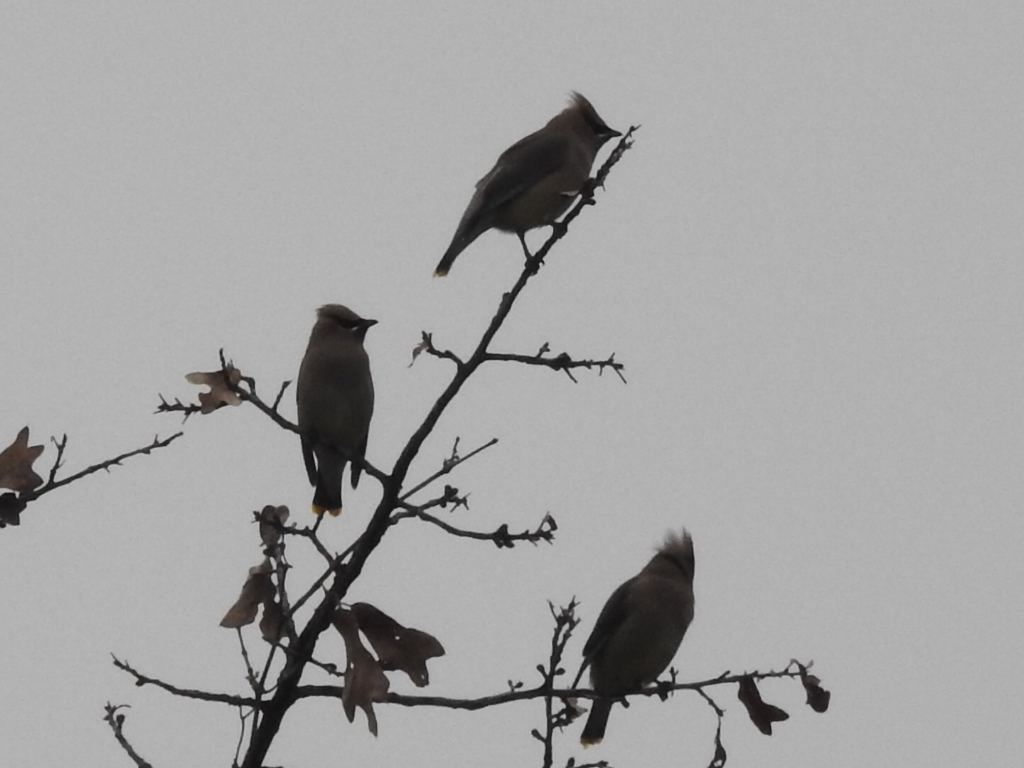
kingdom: Animalia
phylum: Chordata
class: Aves
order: Passeriformes
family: Bombycillidae
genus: Bombycilla
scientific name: Bombycilla cedrorum
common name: Cedar waxwing
